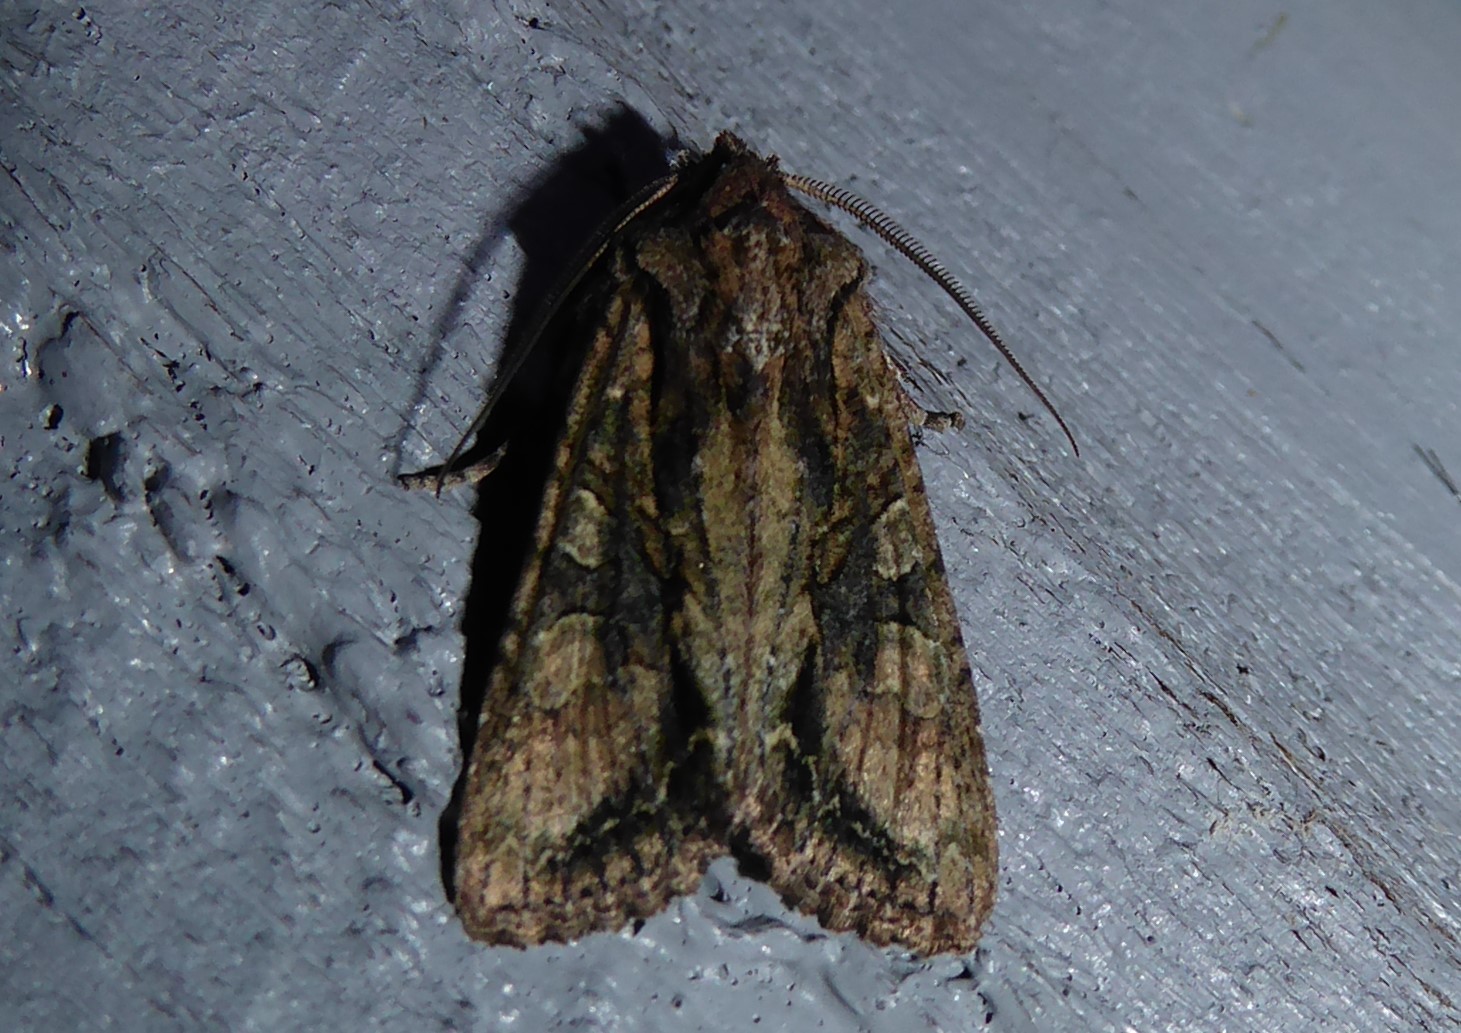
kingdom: Animalia
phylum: Arthropoda
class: Insecta
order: Lepidoptera
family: Noctuidae
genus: Ichneutica
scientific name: Ichneutica mutans
